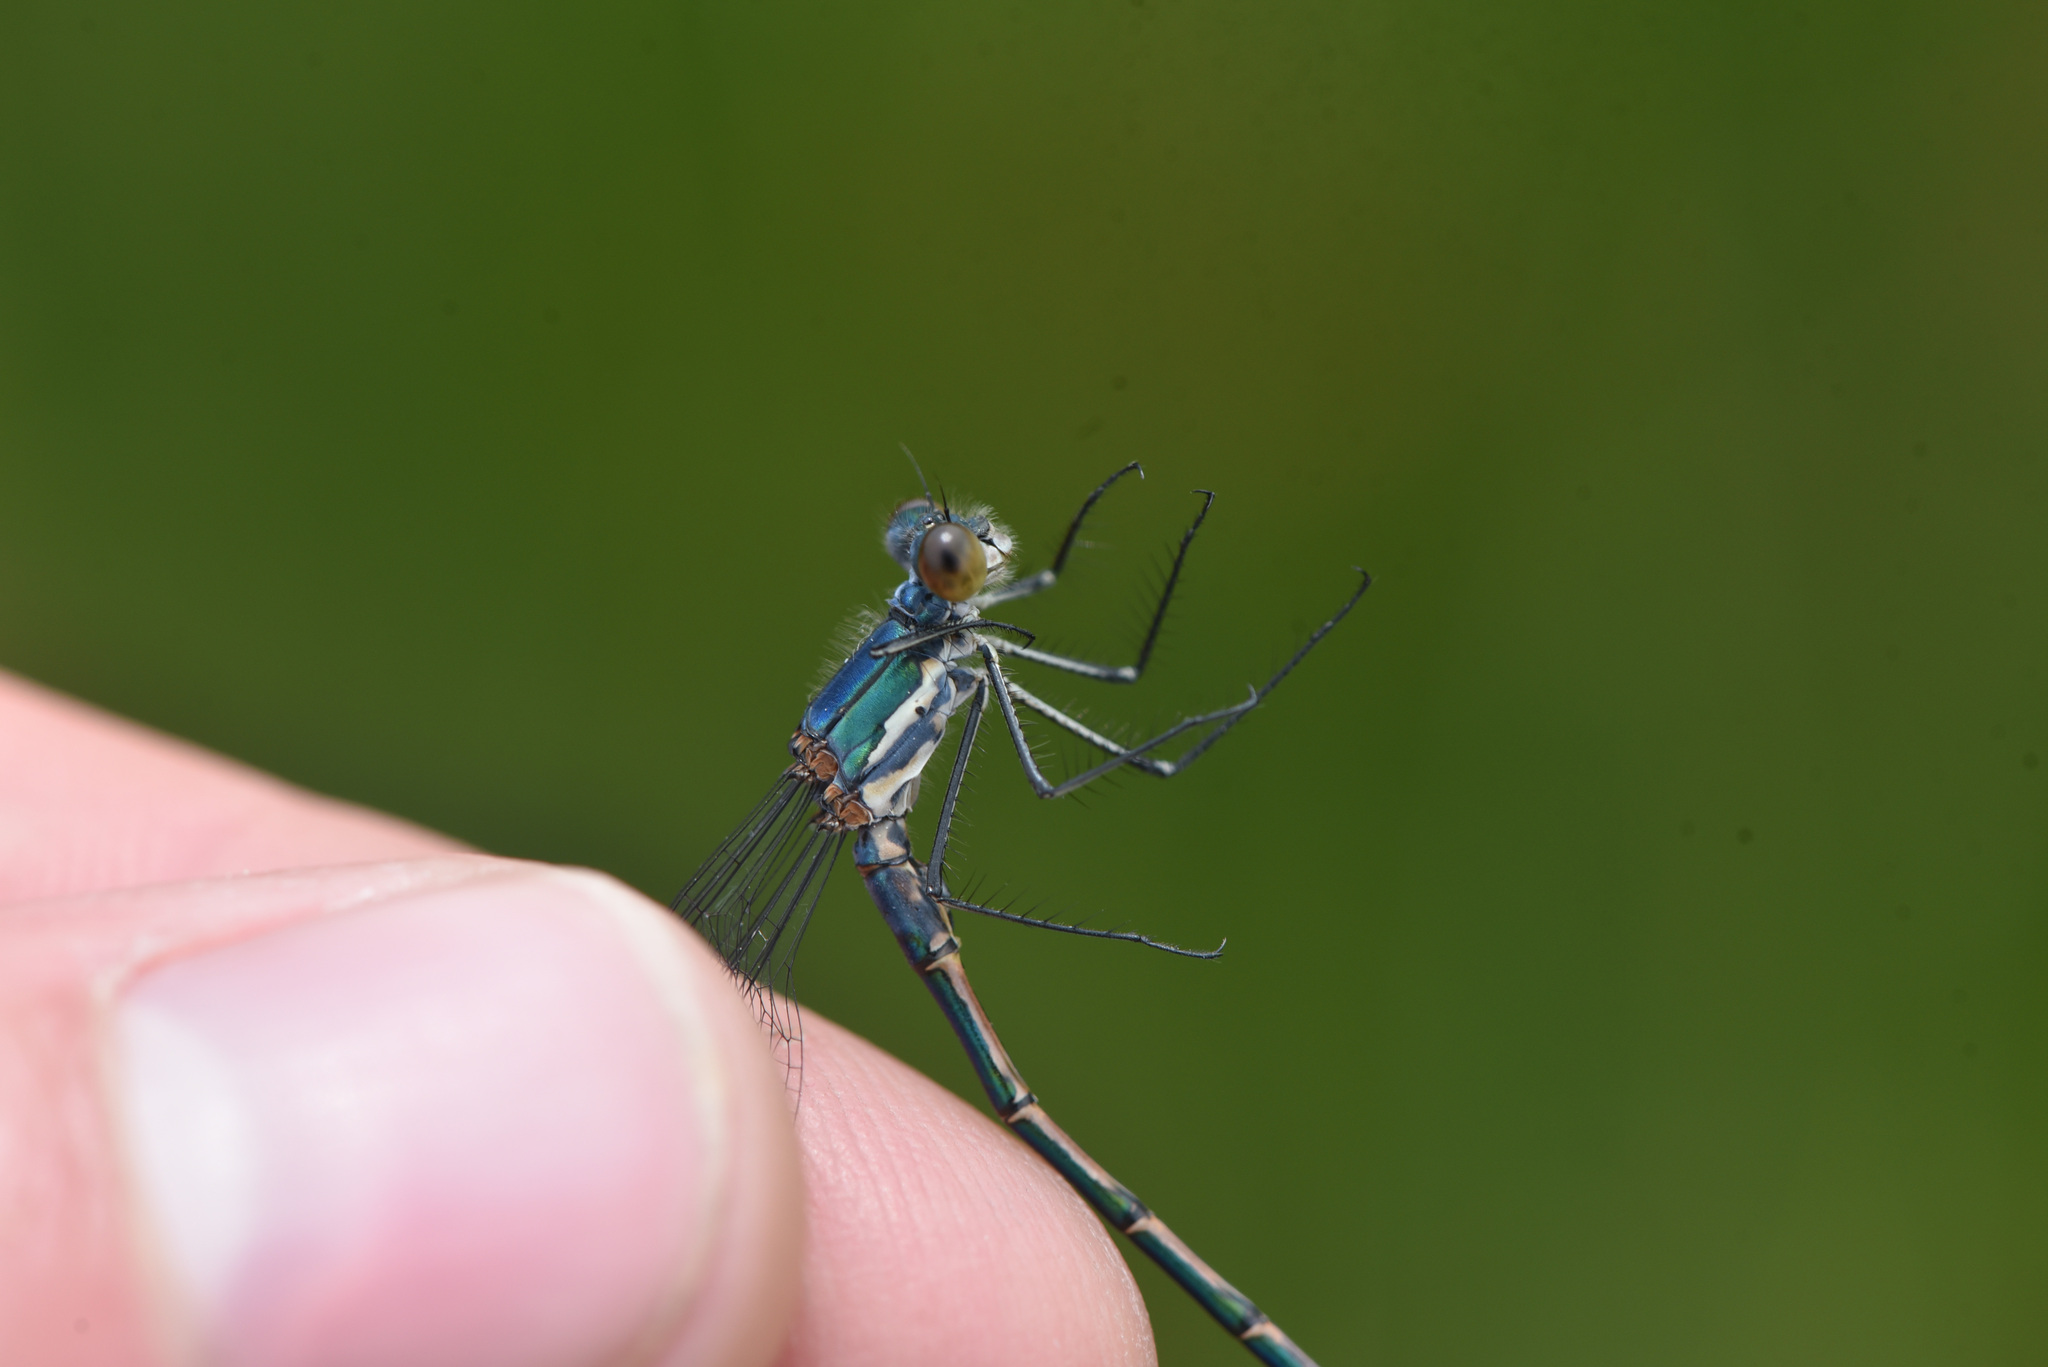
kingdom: Animalia
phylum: Arthropoda
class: Insecta
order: Odonata
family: Lestidae
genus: Lestes
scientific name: Lestes dryas
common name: Scarce emerald damselfly
